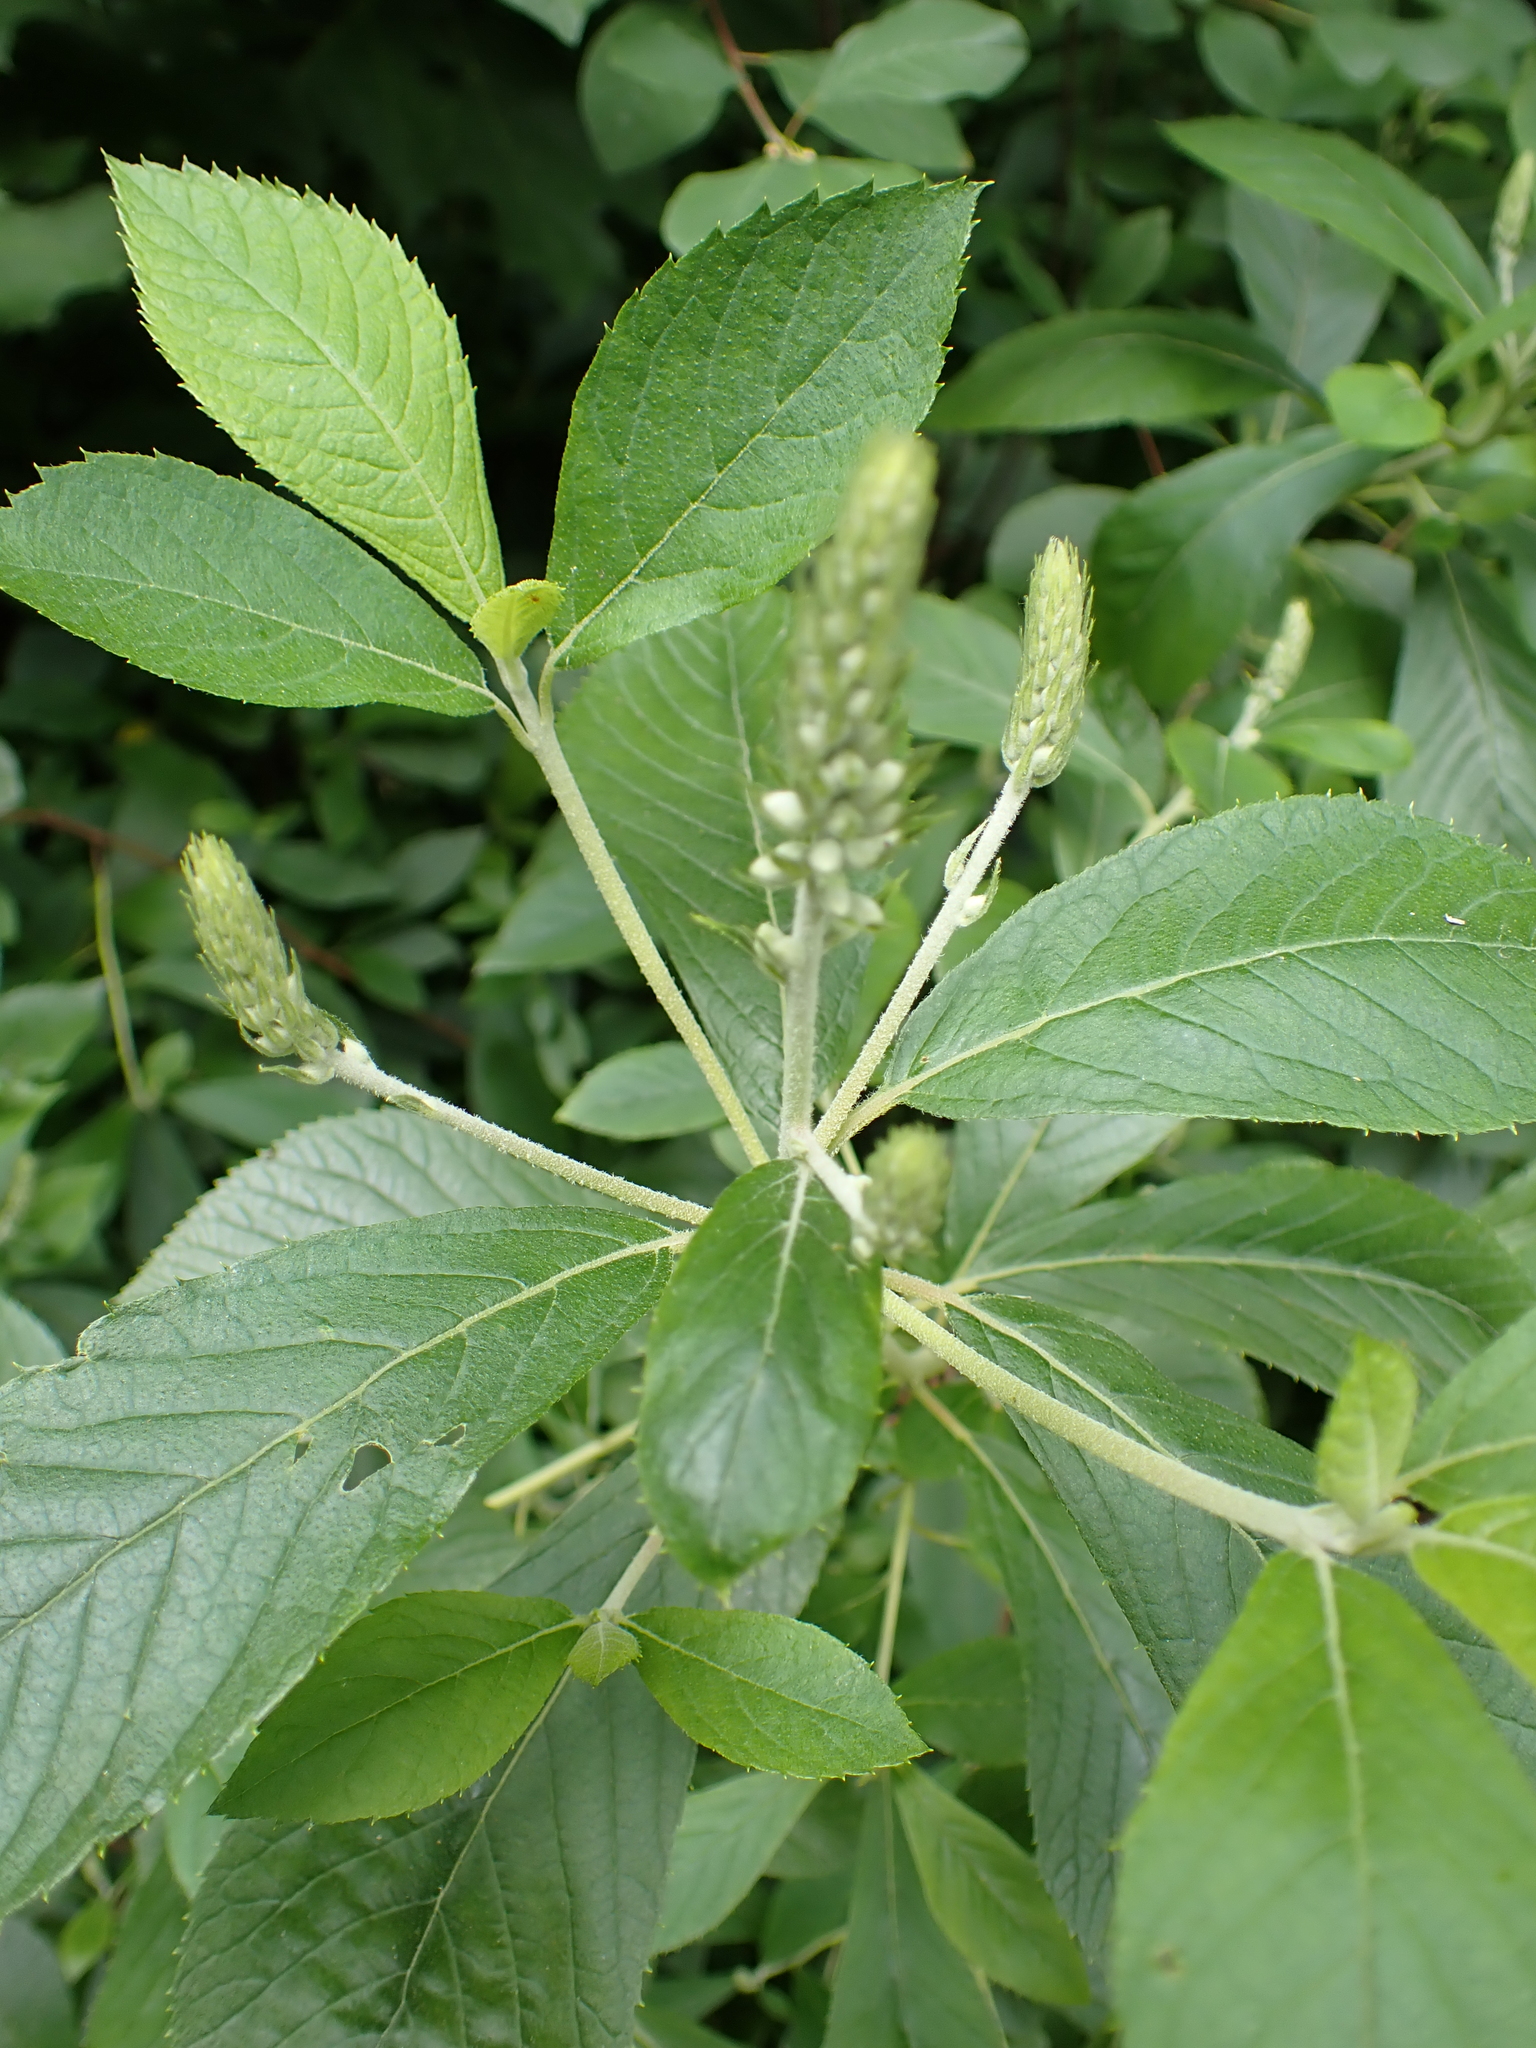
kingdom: Plantae
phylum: Tracheophyta
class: Magnoliopsida
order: Ericales
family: Clethraceae
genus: Clethra
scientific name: Clethra alnifolia
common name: Sweet pepperbush
